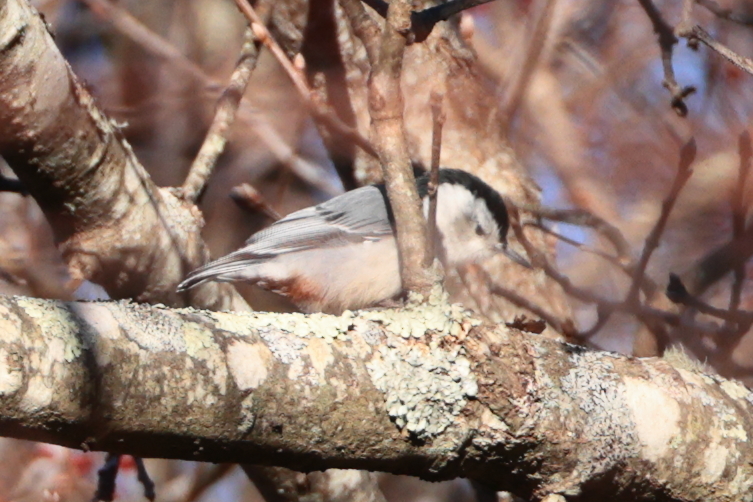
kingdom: Animalia
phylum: Chordata
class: Aves
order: Passeriformes
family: Sittidae
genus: Sitta
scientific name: Sitta carolinensis
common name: White-breasted nuthatch
